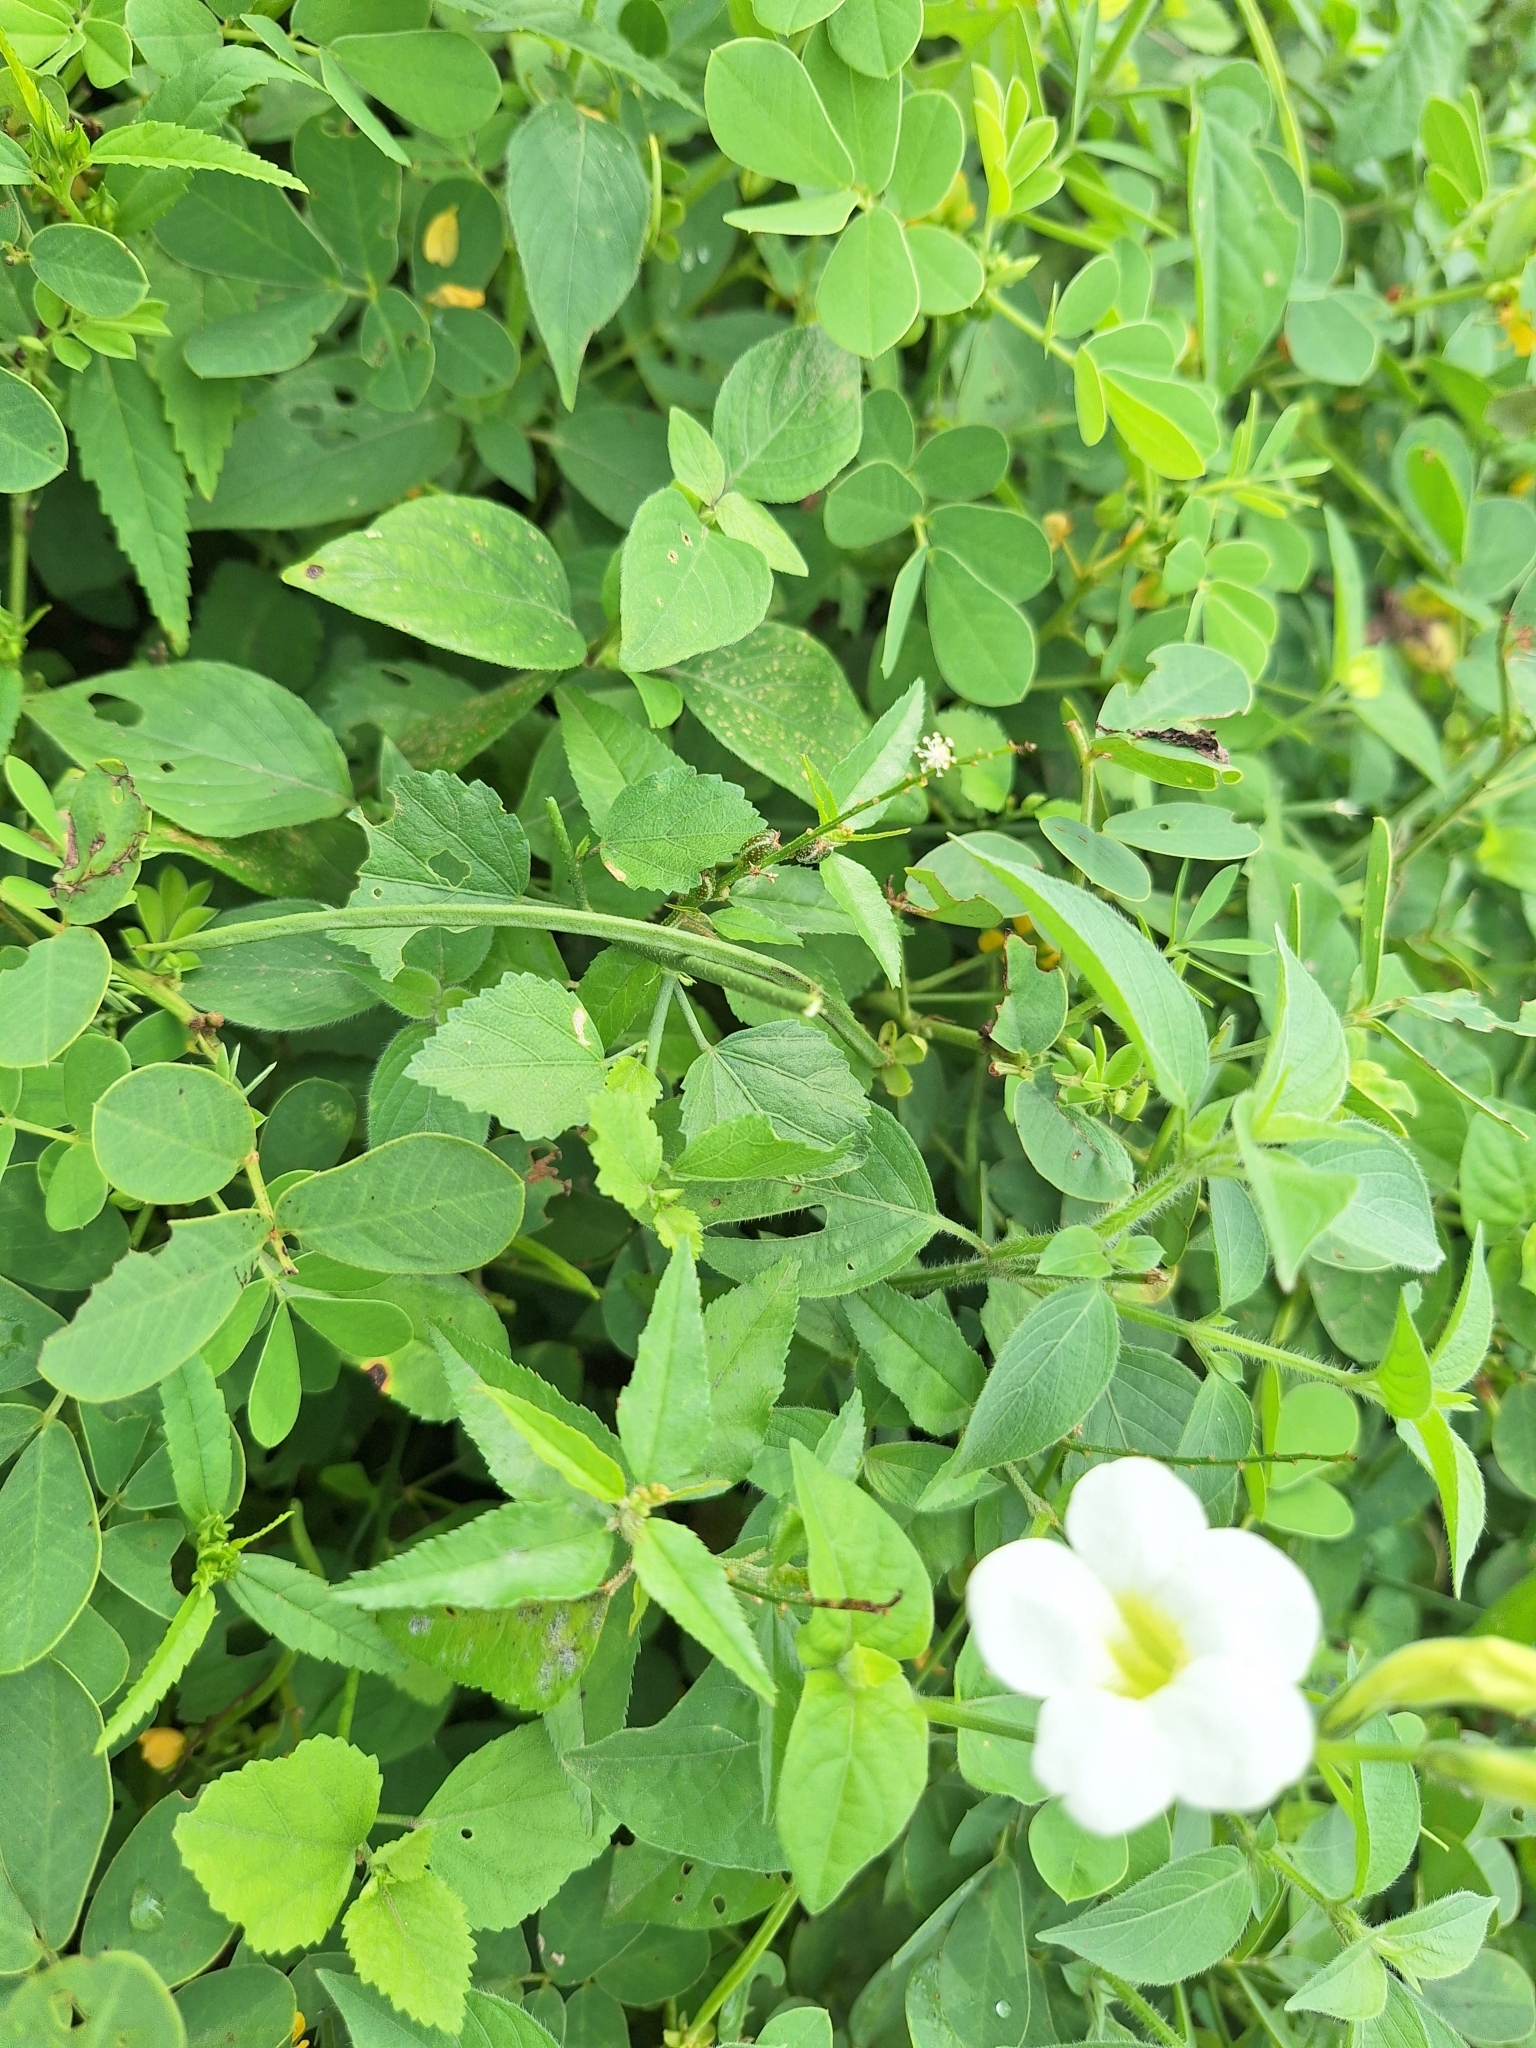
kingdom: Plantae
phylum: Tracheophyta
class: Magnoliopsida
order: Lamiales
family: Acanthaceae
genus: Asystasia
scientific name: Asystasia gangetica
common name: Chinese violet
